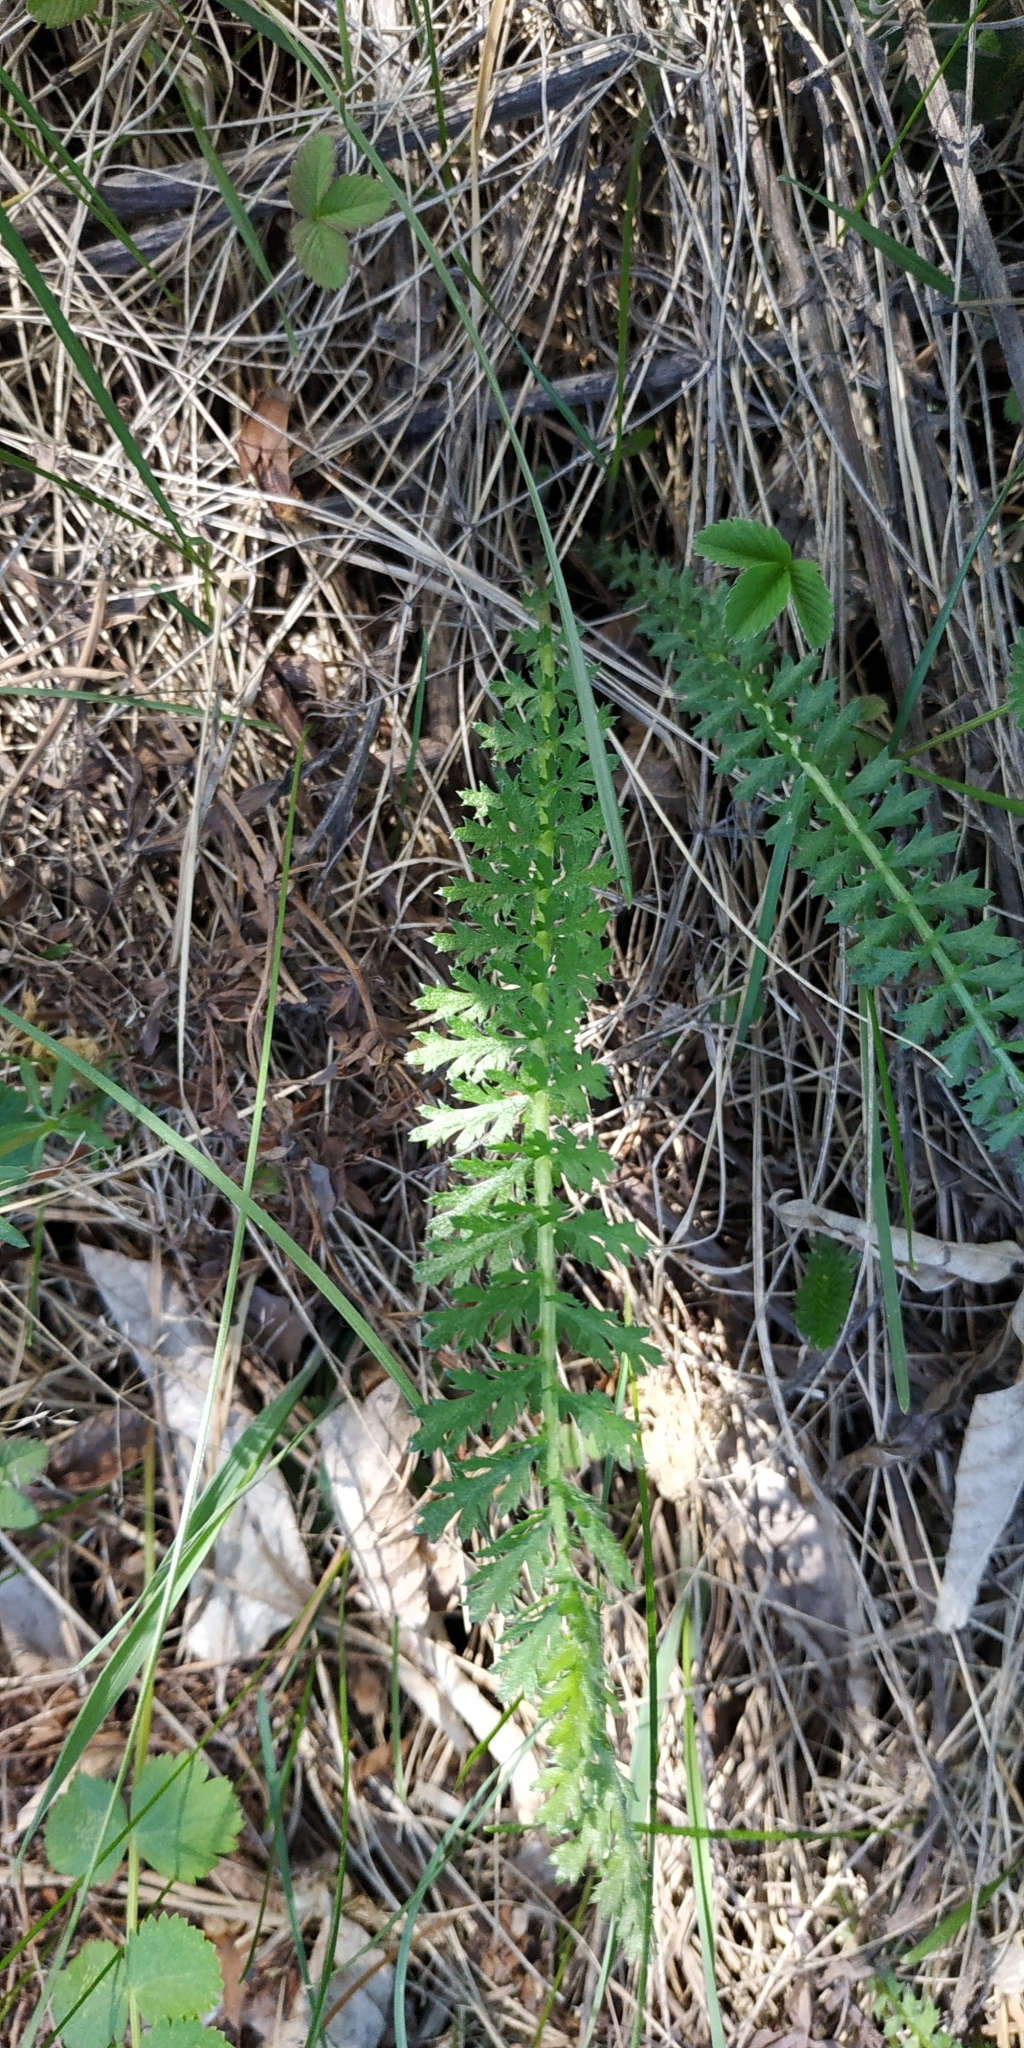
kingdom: Plantae
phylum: Tracheophyta
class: Magnoliopsida
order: Asterales
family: Asteraceae
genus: Achillea
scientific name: Achillea millefolium
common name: Yarrow
